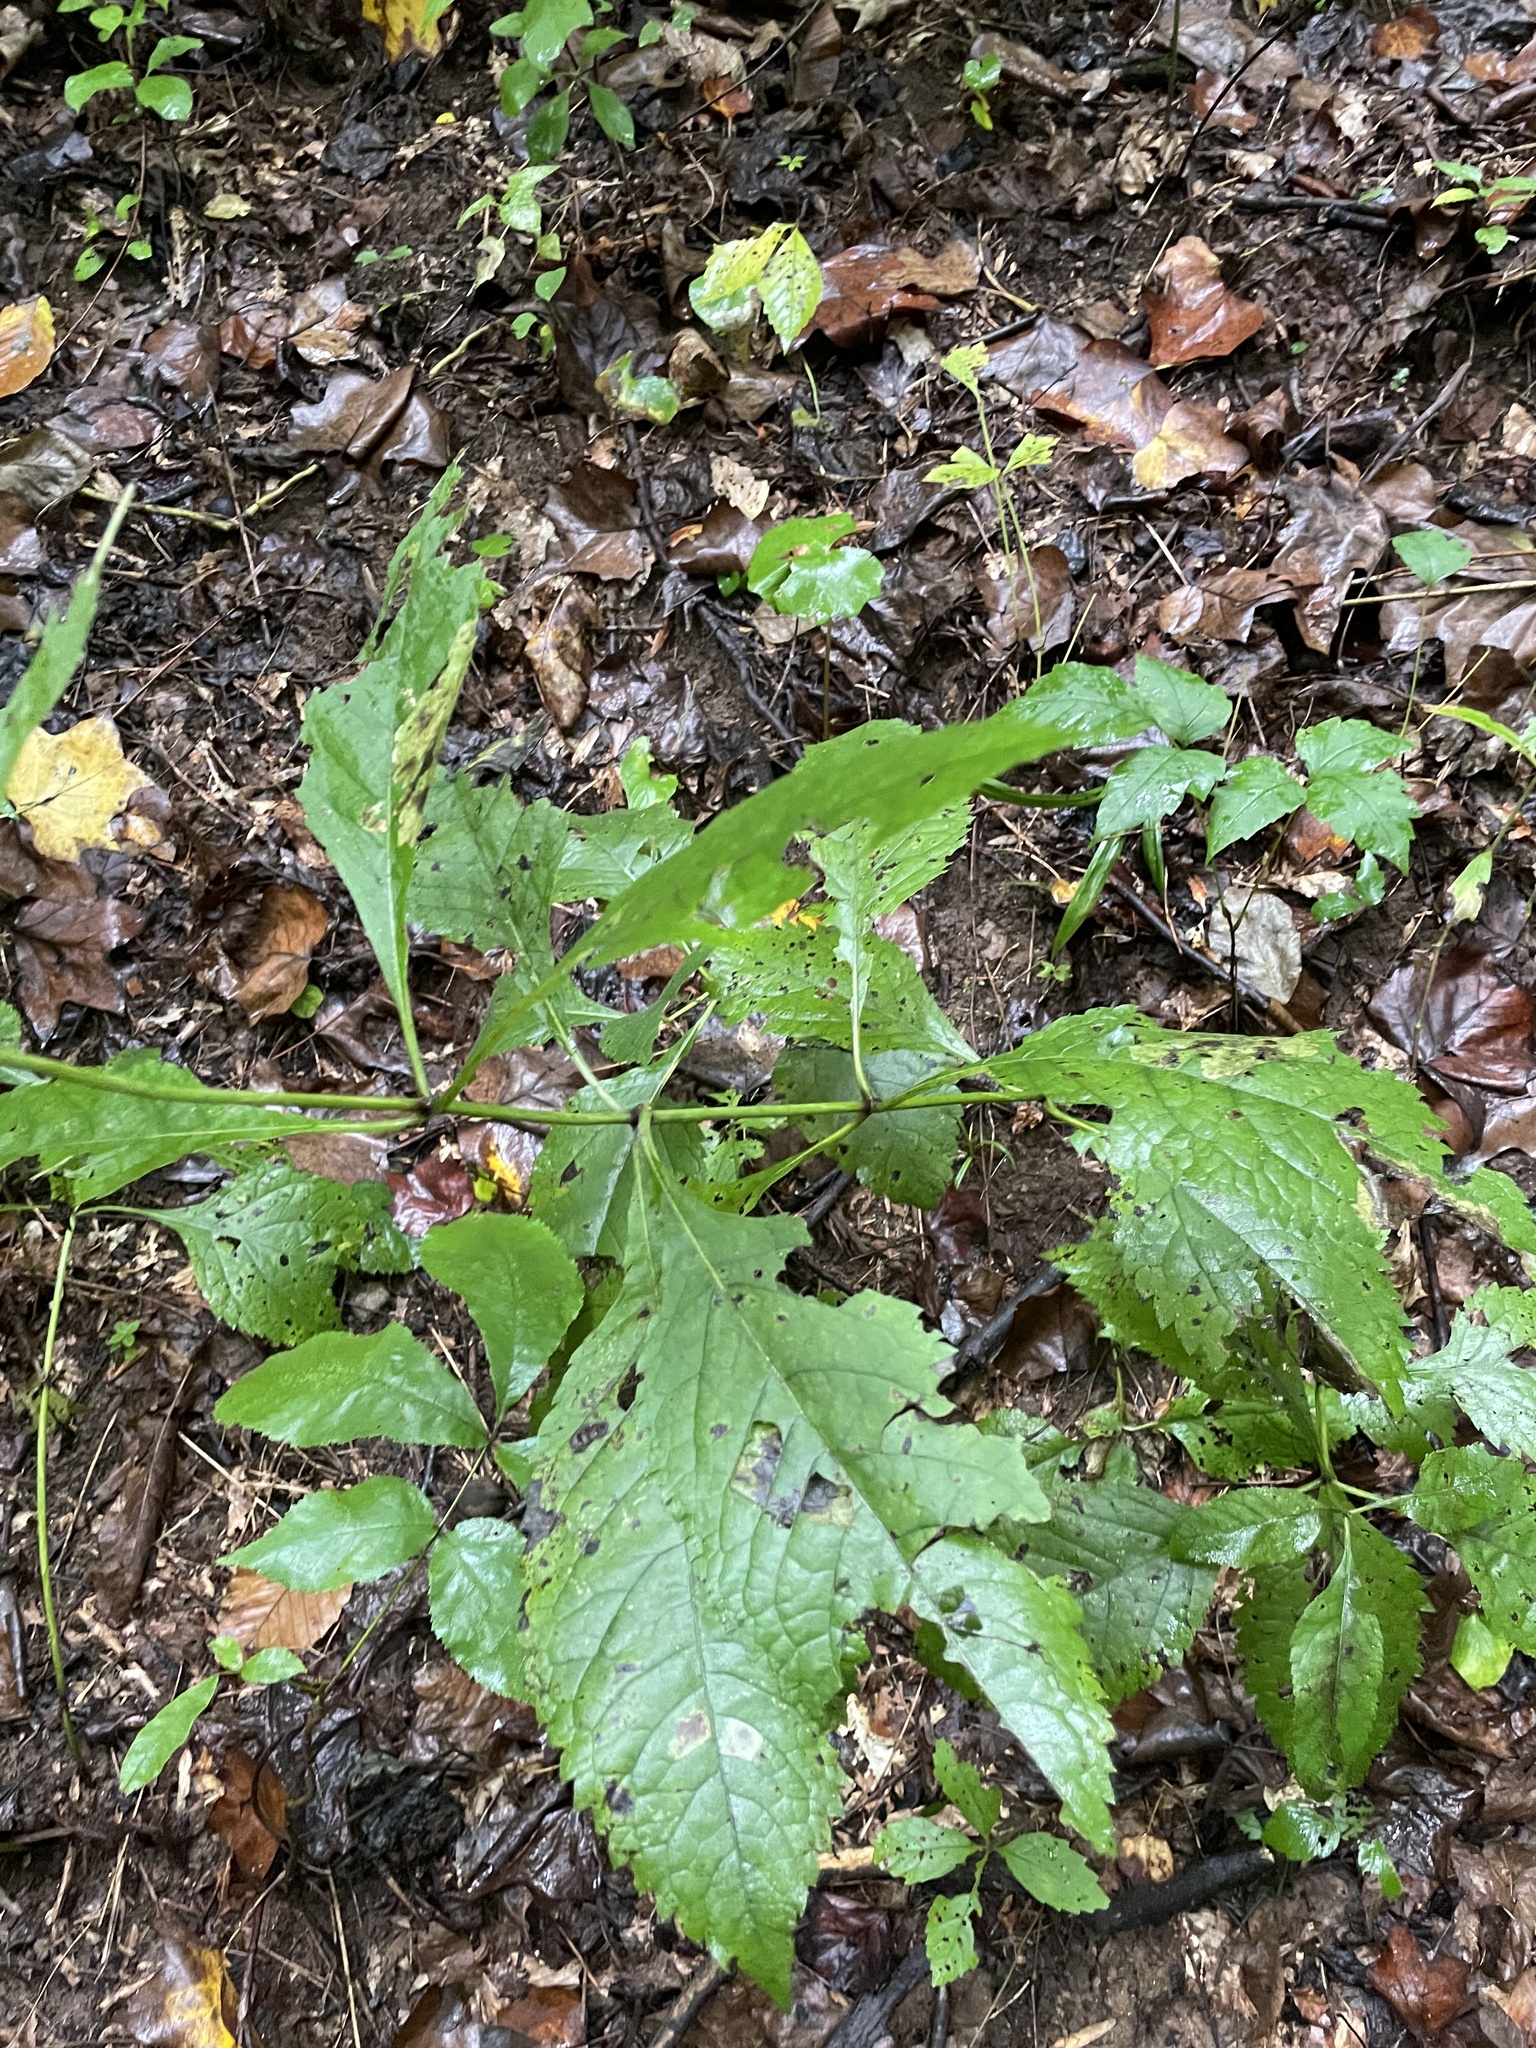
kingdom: Plantae
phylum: Tracheophyta
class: Magnoliopsida
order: Asterales
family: Asteraceae
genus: Eutrochium
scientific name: Eutrochium purpureum
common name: Gravelroot
